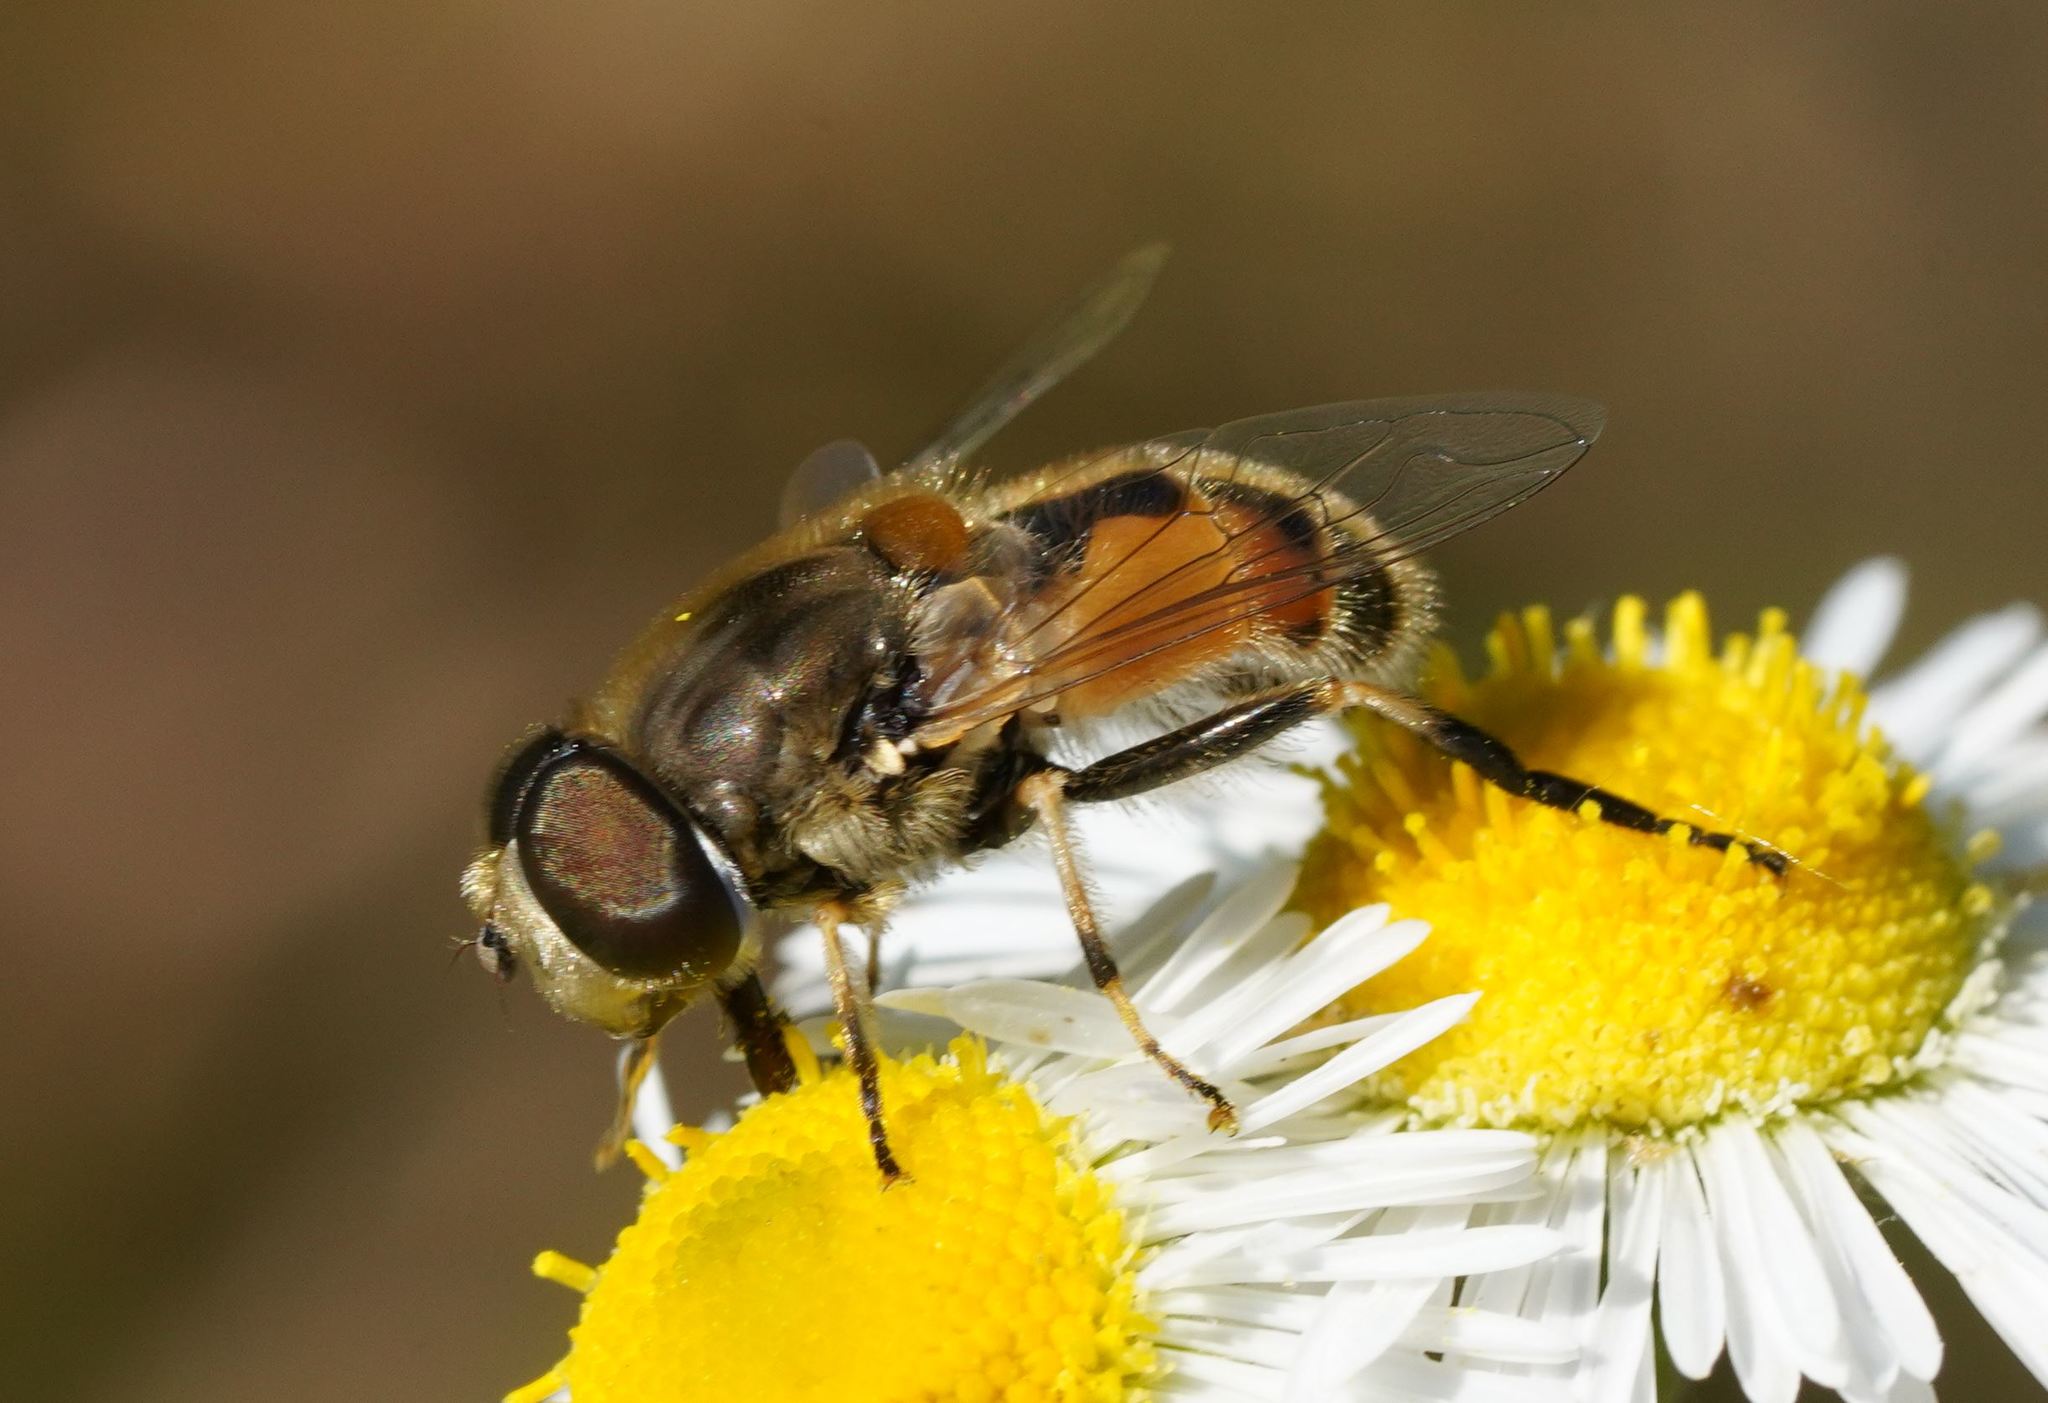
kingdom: Animalia
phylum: Arthropoda
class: Insecta
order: Diptera
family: Syrphidae
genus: Eristalis
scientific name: Eristalis arbustorum
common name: Hover fly
